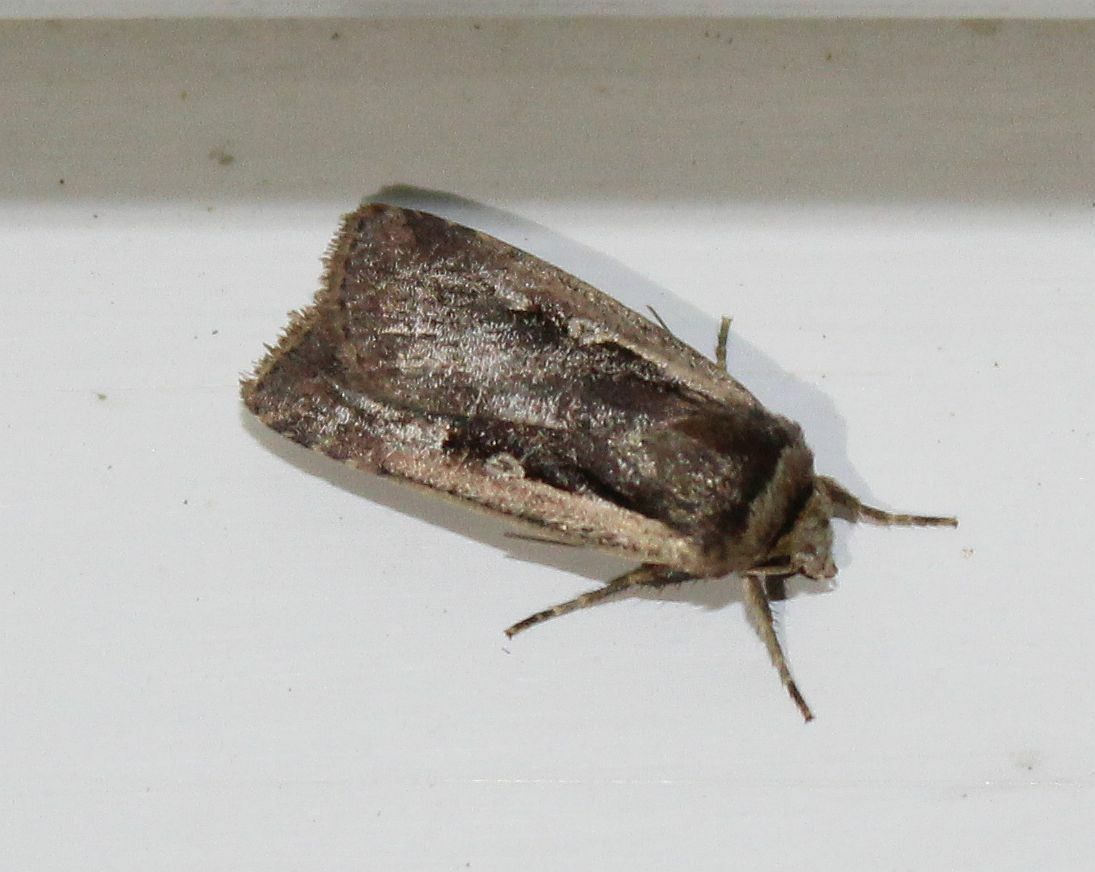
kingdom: Animalia
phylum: Arthropoda
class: Insecta
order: Lepidoptera
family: Noctuidae
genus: Ochropleura
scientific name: Ochropleura plecta
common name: Flame shoulder
